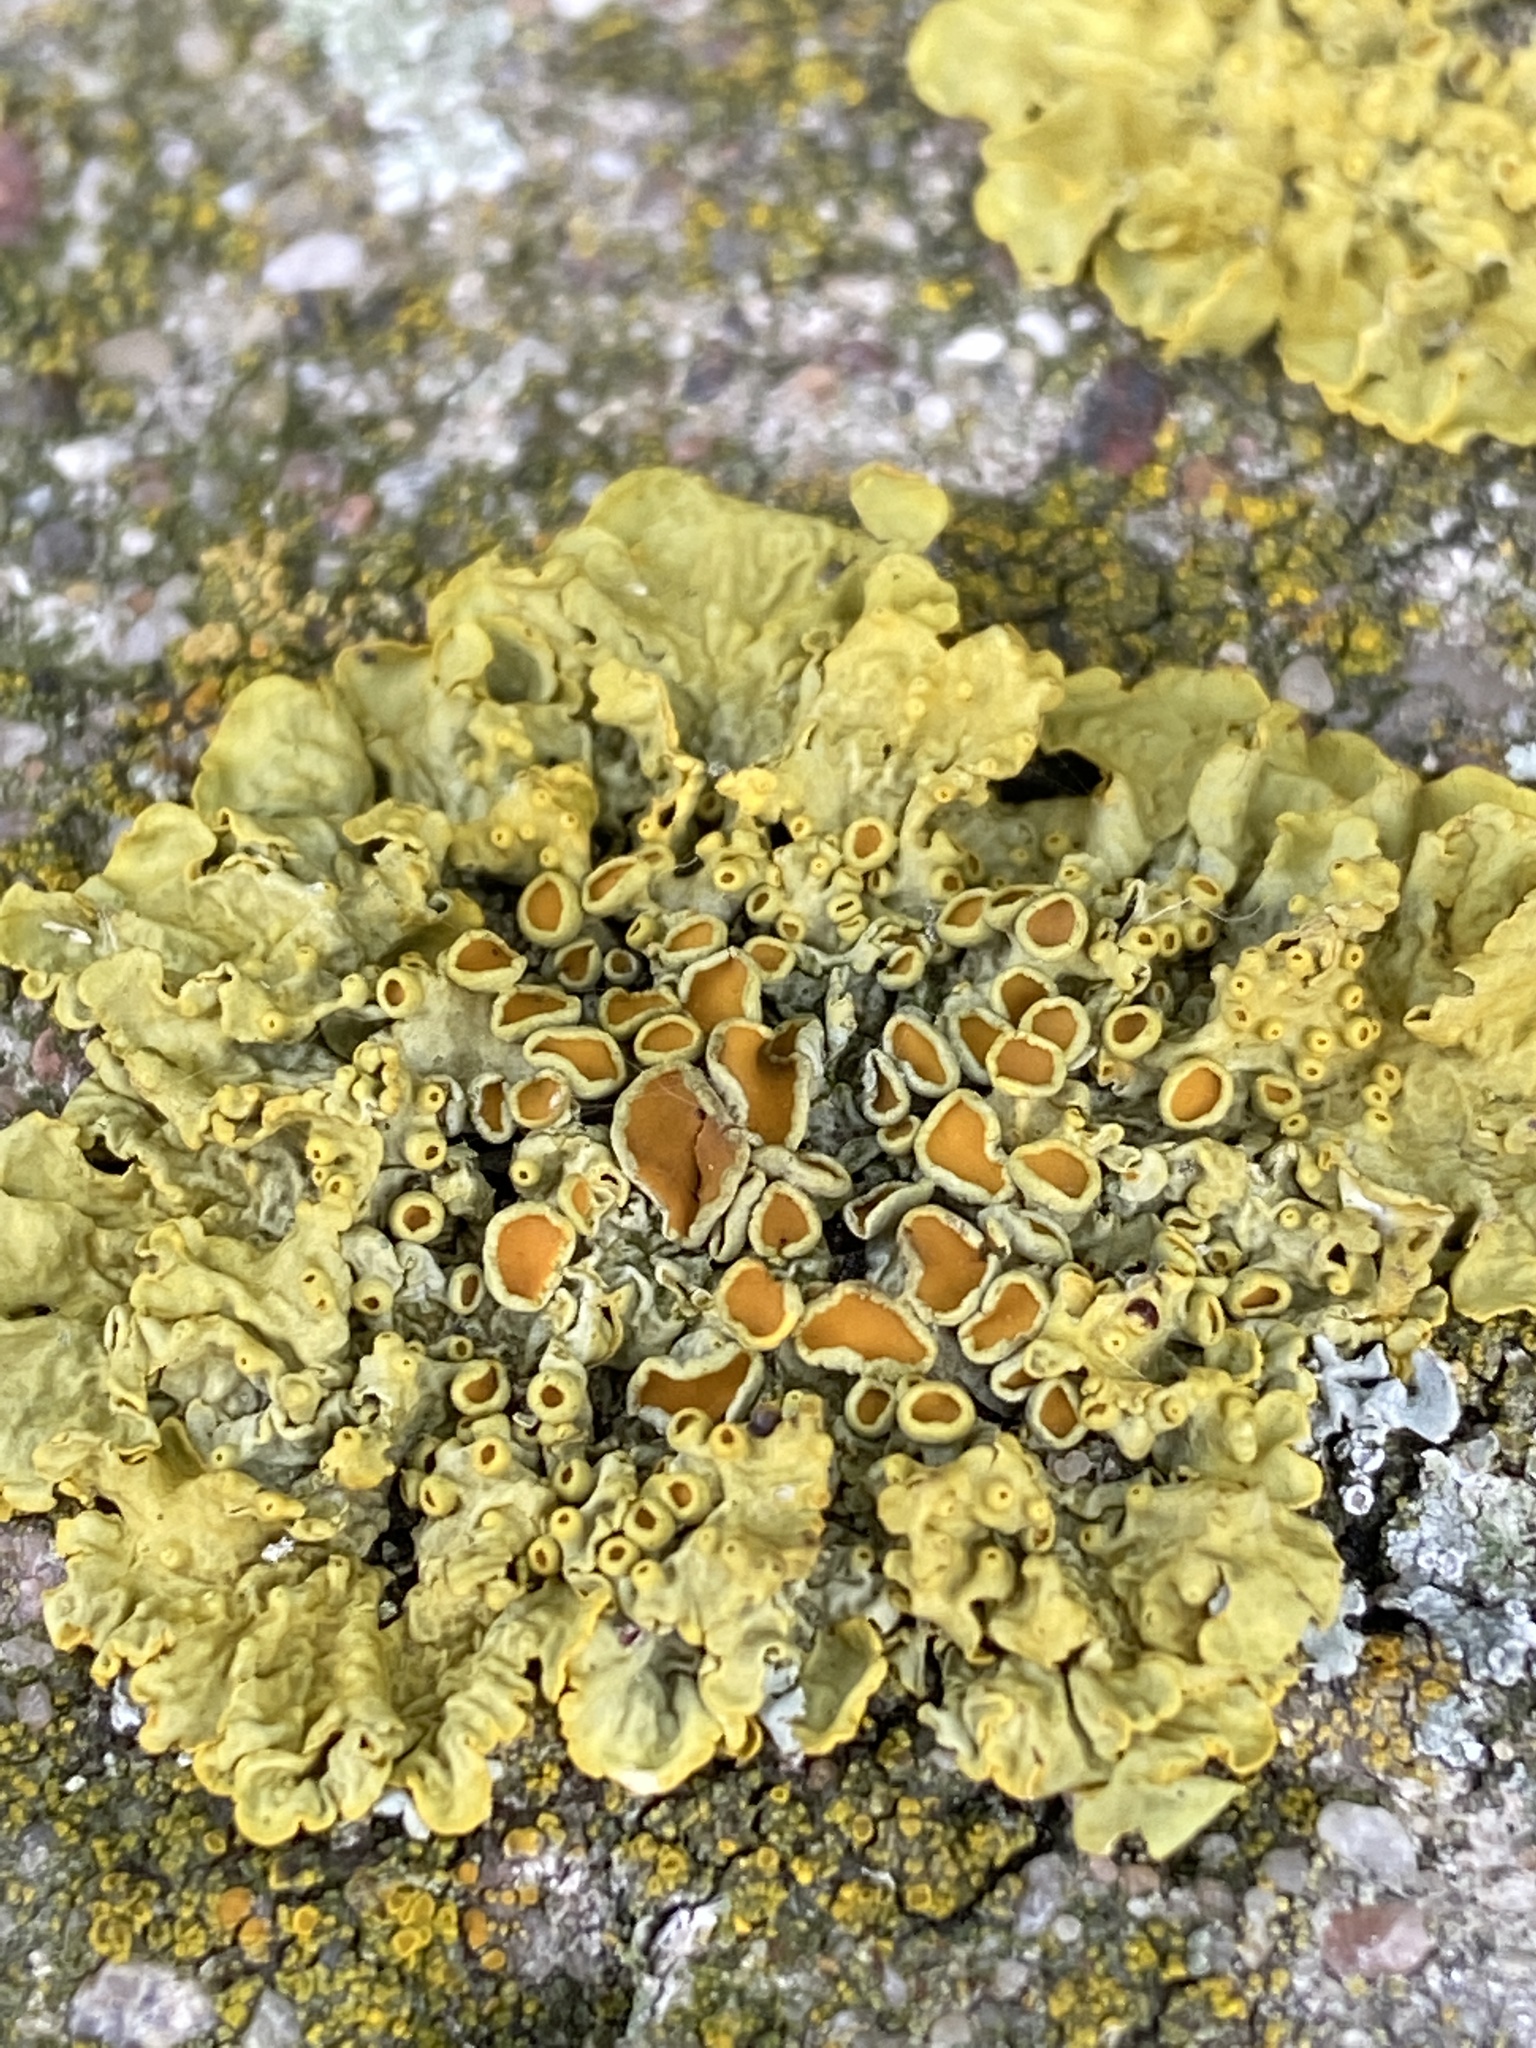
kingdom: Fungi
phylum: Ascomycota
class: Lecanoromycetes
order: Teloschistales
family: Teloschistaceae
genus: Xanthoria
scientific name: Xanthoria parietina
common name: Common orange lichen
